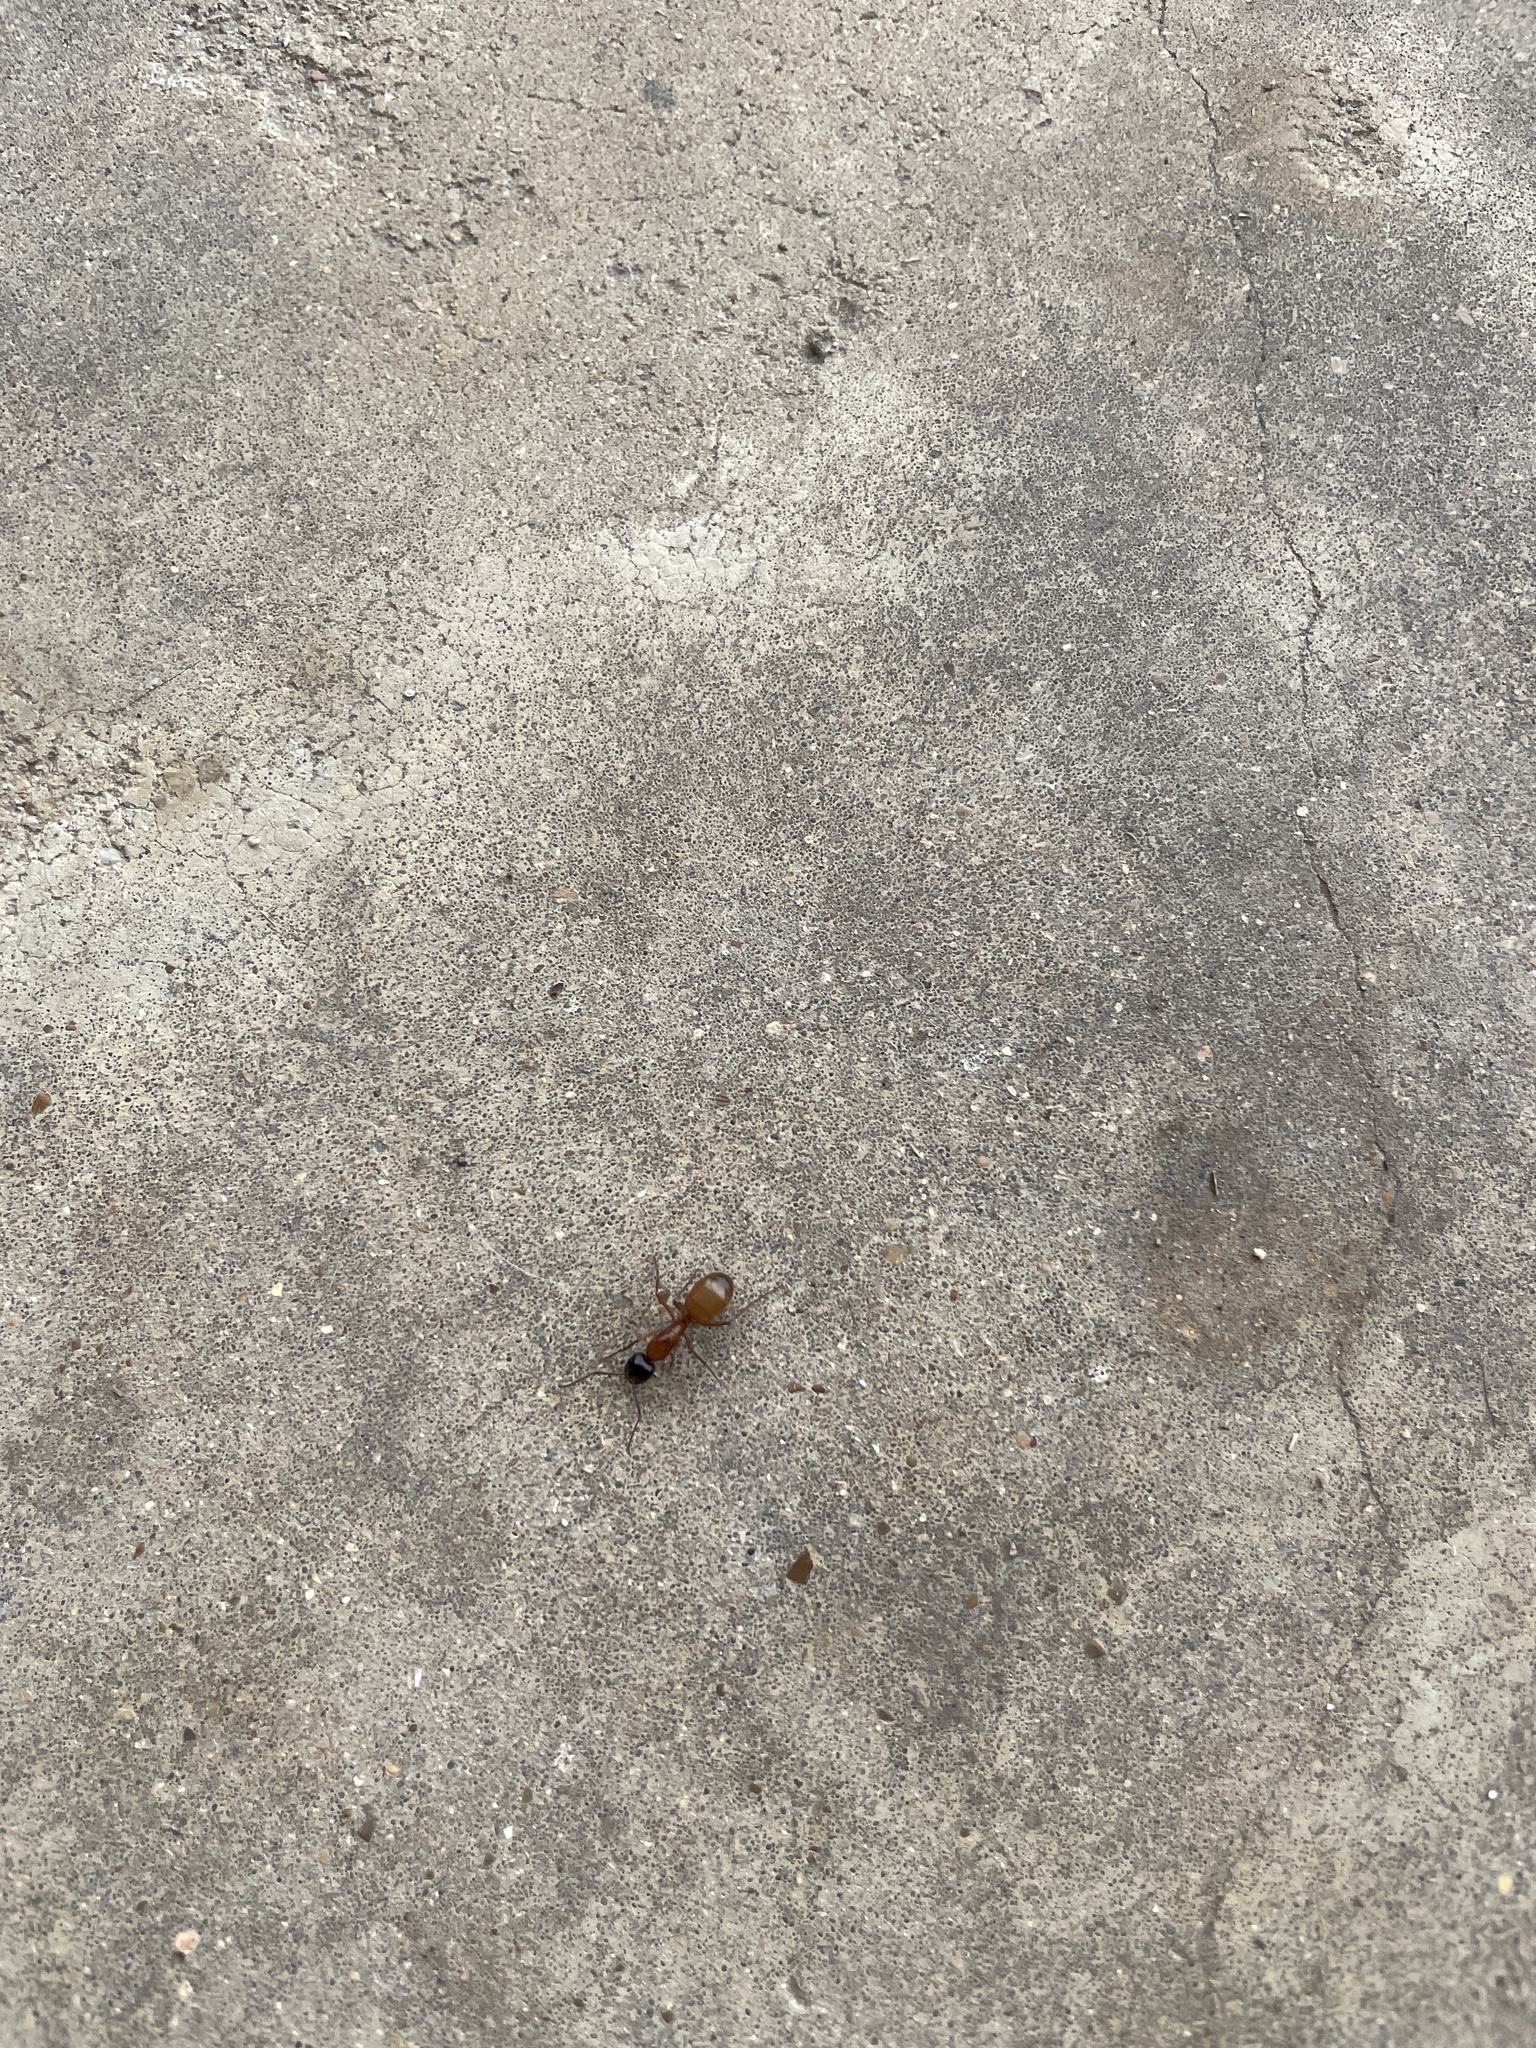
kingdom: Animalia
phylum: Arthropoda
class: Insecta
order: Hymenoptera
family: Formicidae
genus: Camponotus
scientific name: Camponotus americanus
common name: American carpenter ant
